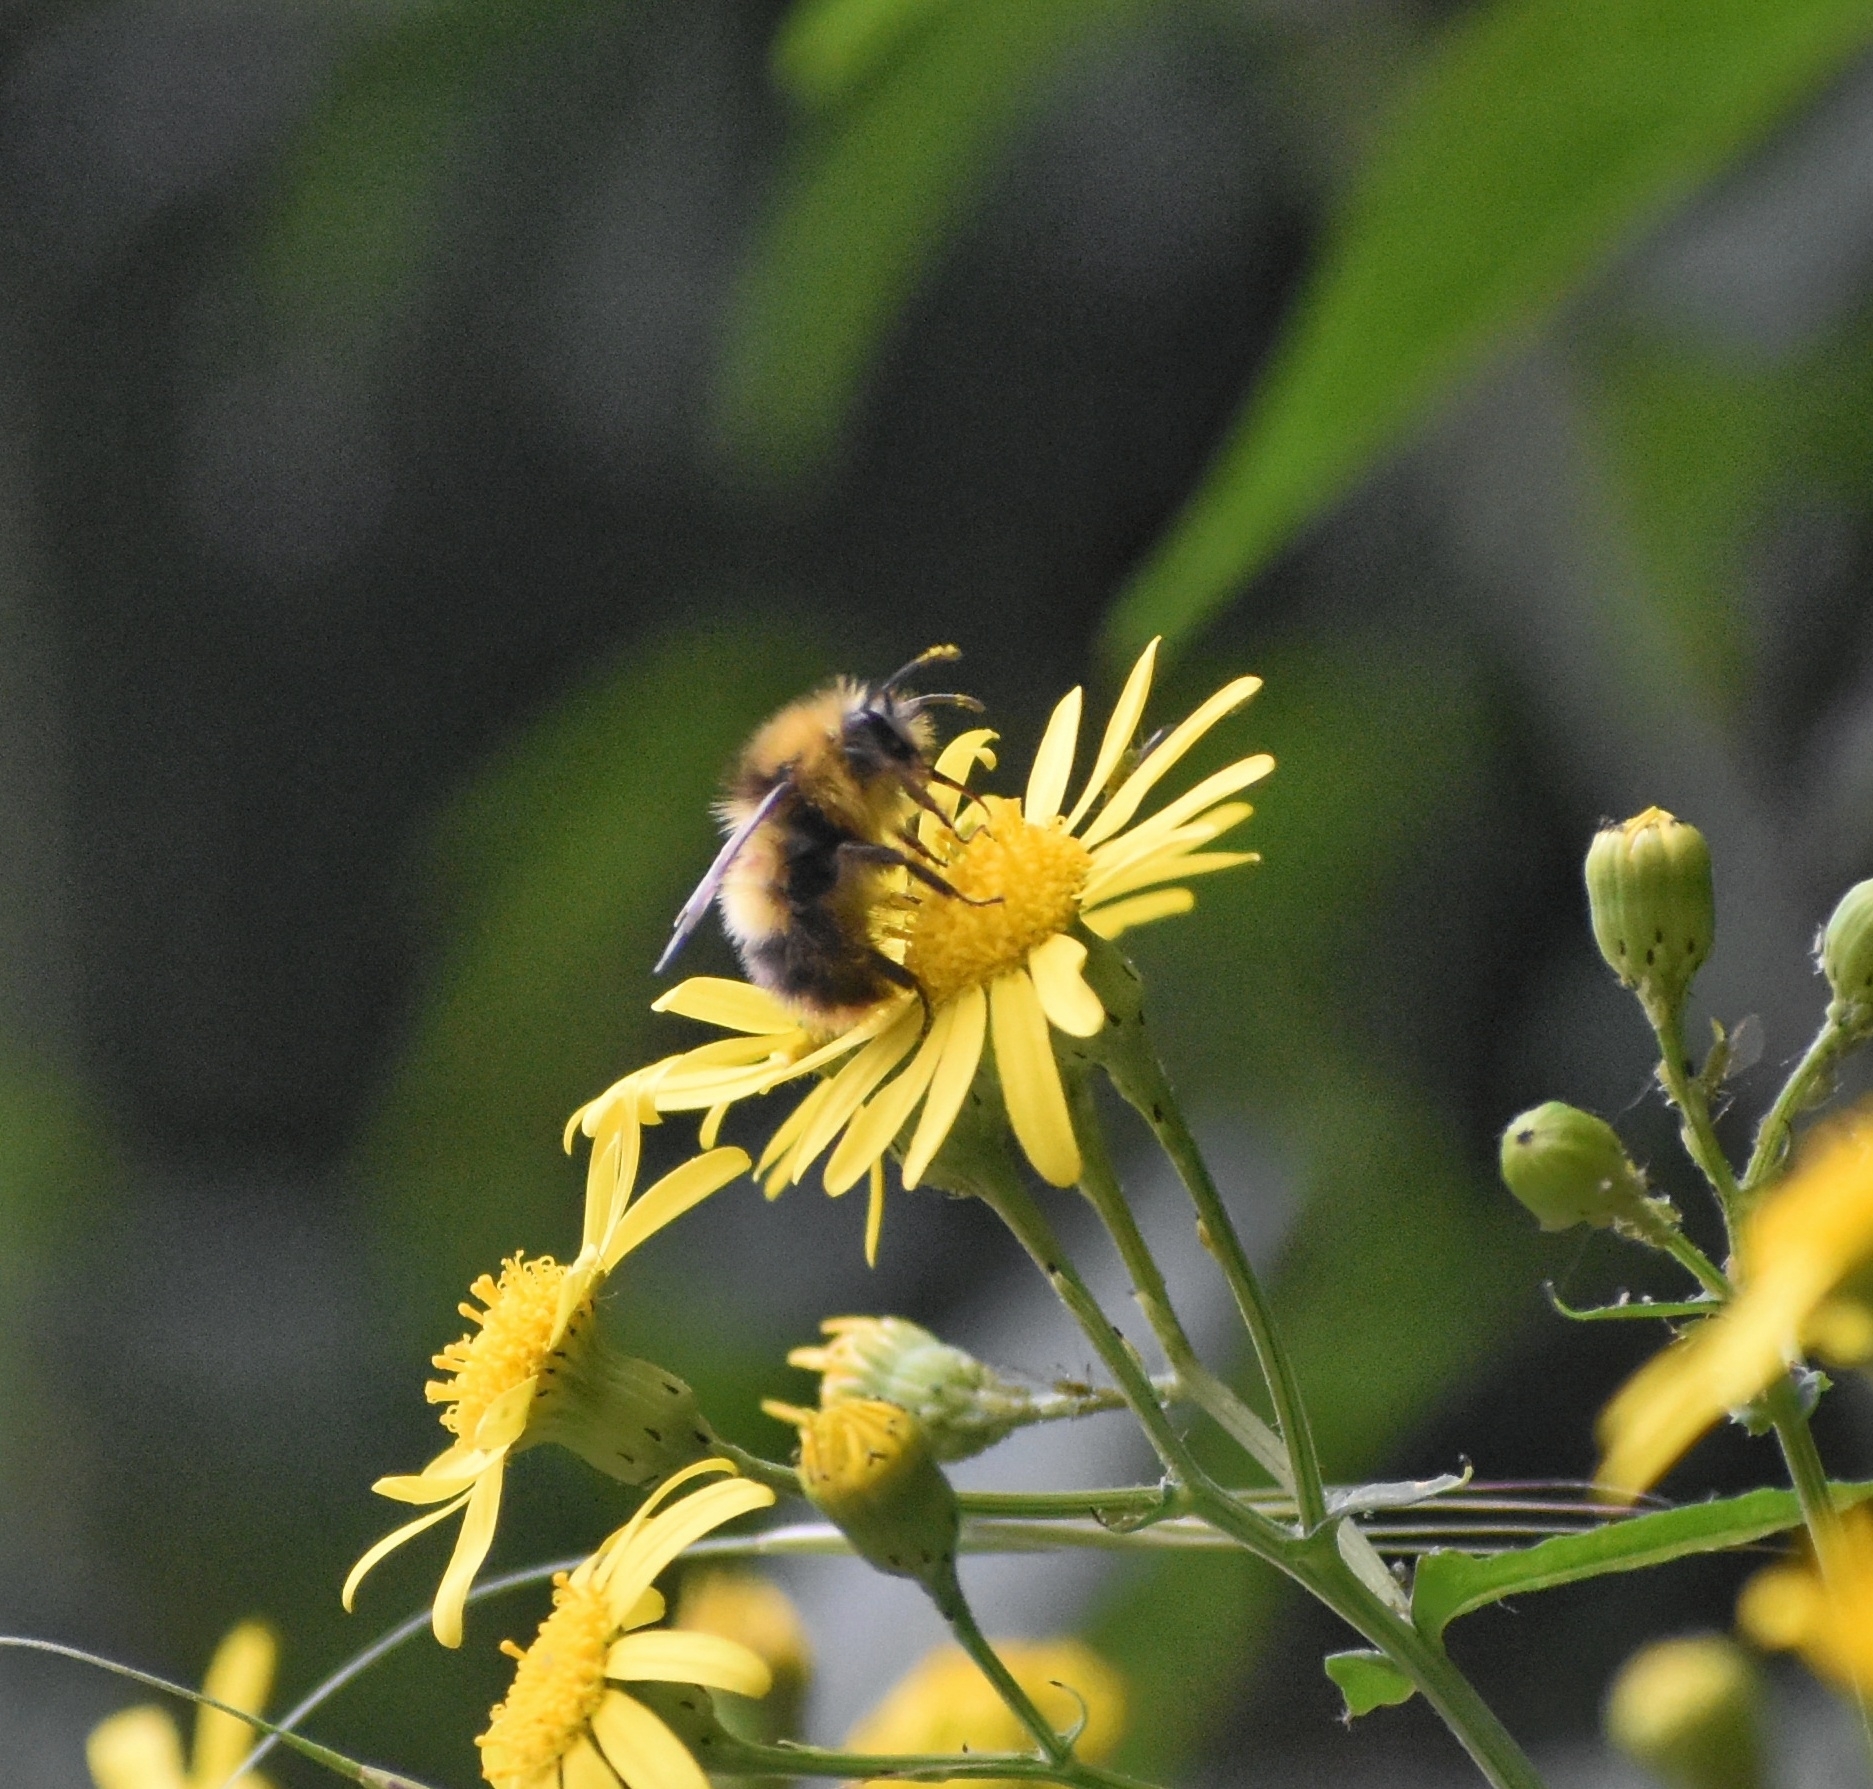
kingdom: Animalia
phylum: Arthropoda
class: Insecta
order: Hymenoptera
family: Apidae
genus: Bombus
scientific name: Bombus pratorum
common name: Early humble-bee
